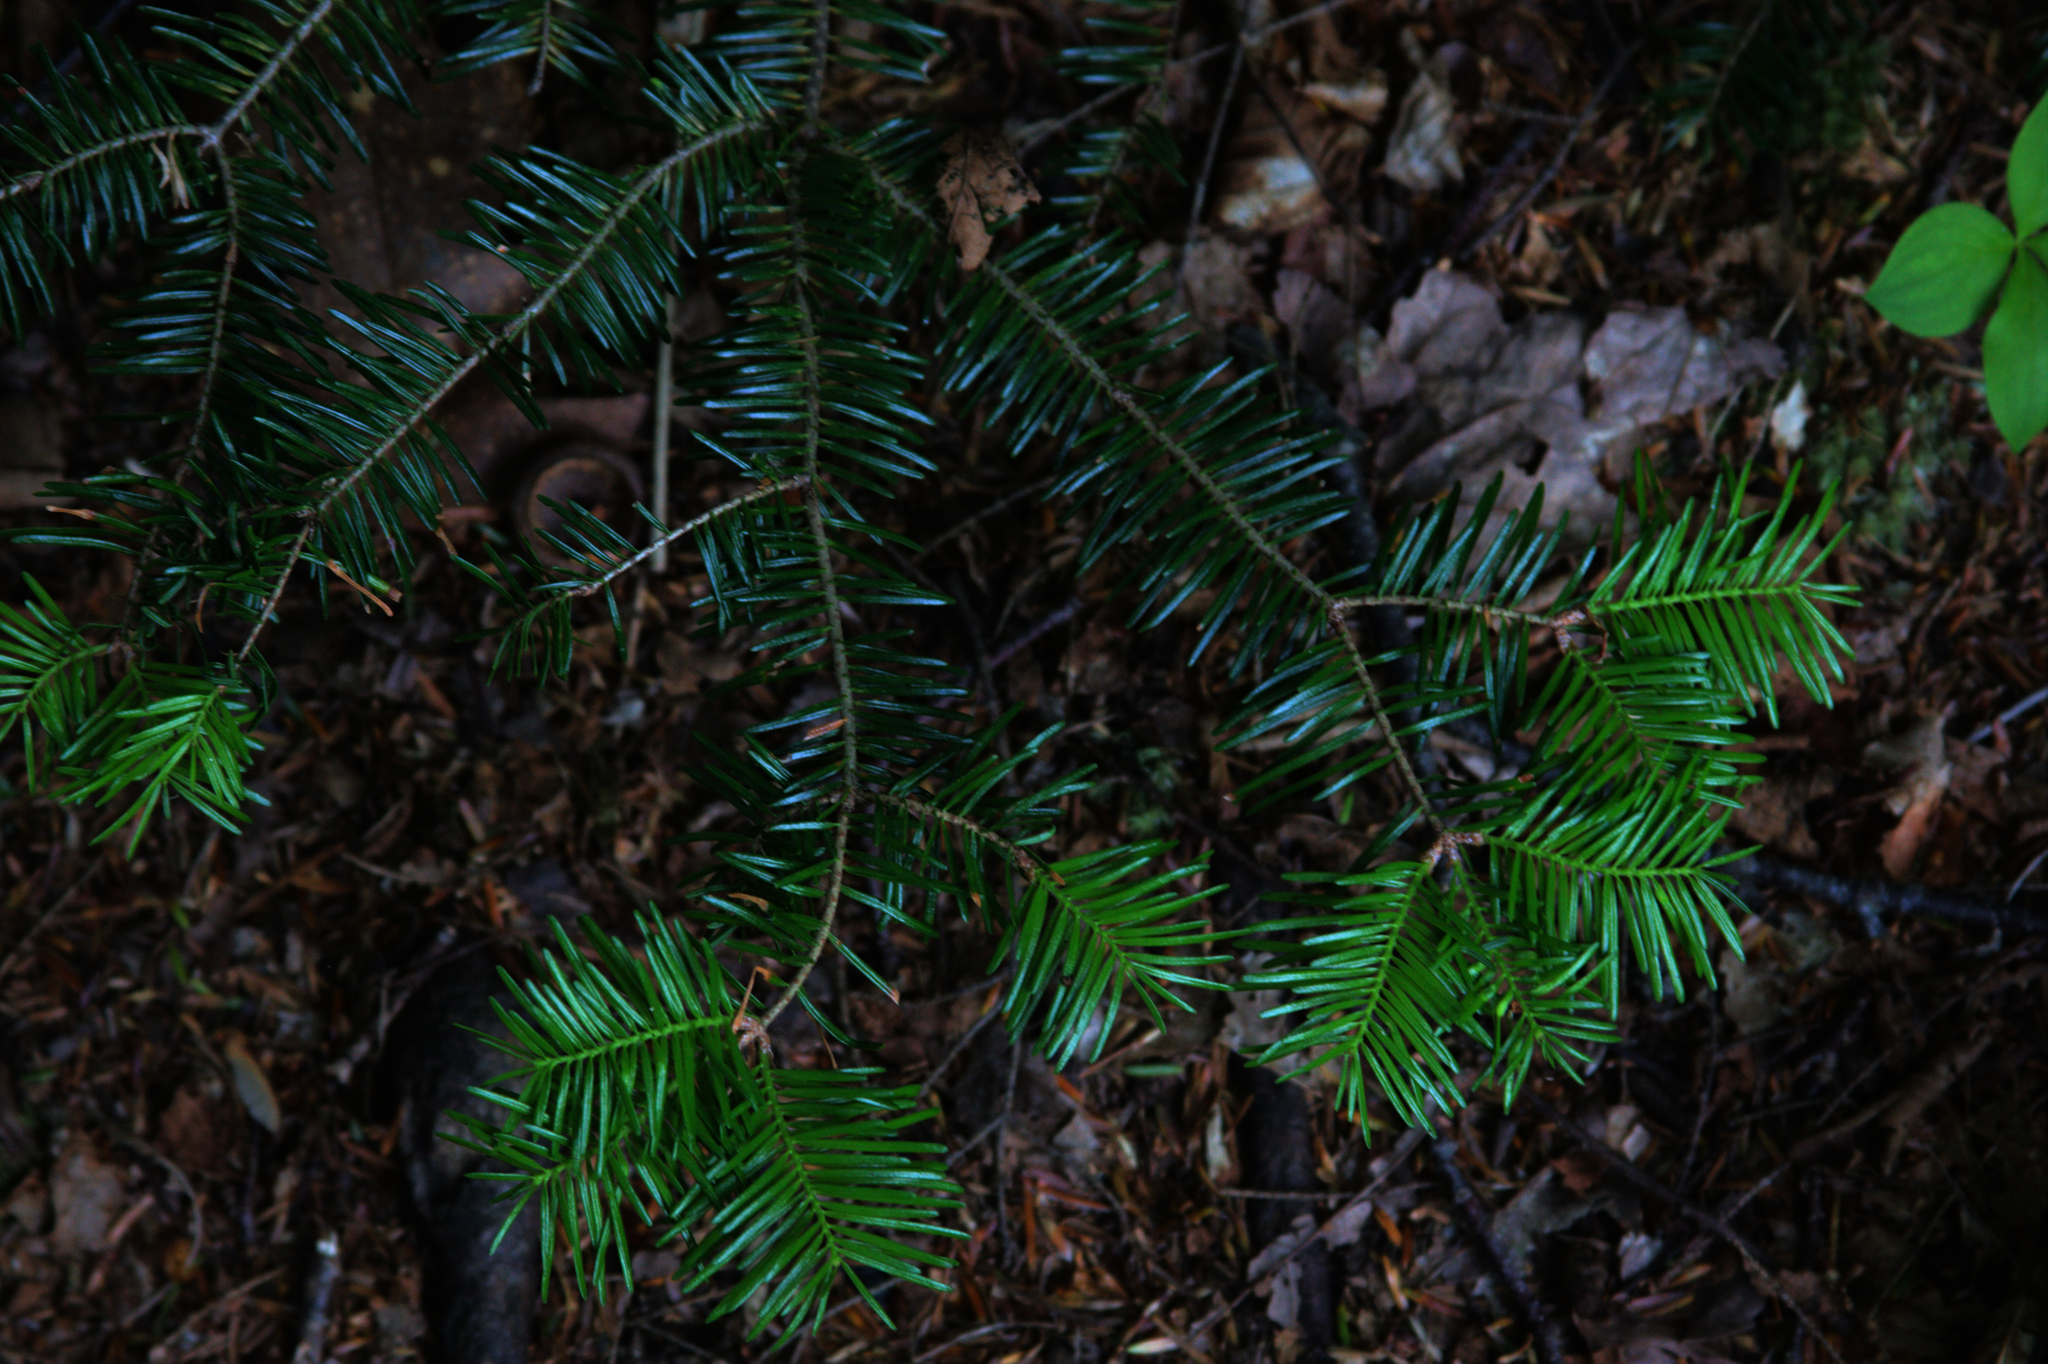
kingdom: Plantae
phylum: Tracheophyta
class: Pinopsida
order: Pinales
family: Pinaceae
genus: Abies
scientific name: Abies balsamea
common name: Balsam fir
